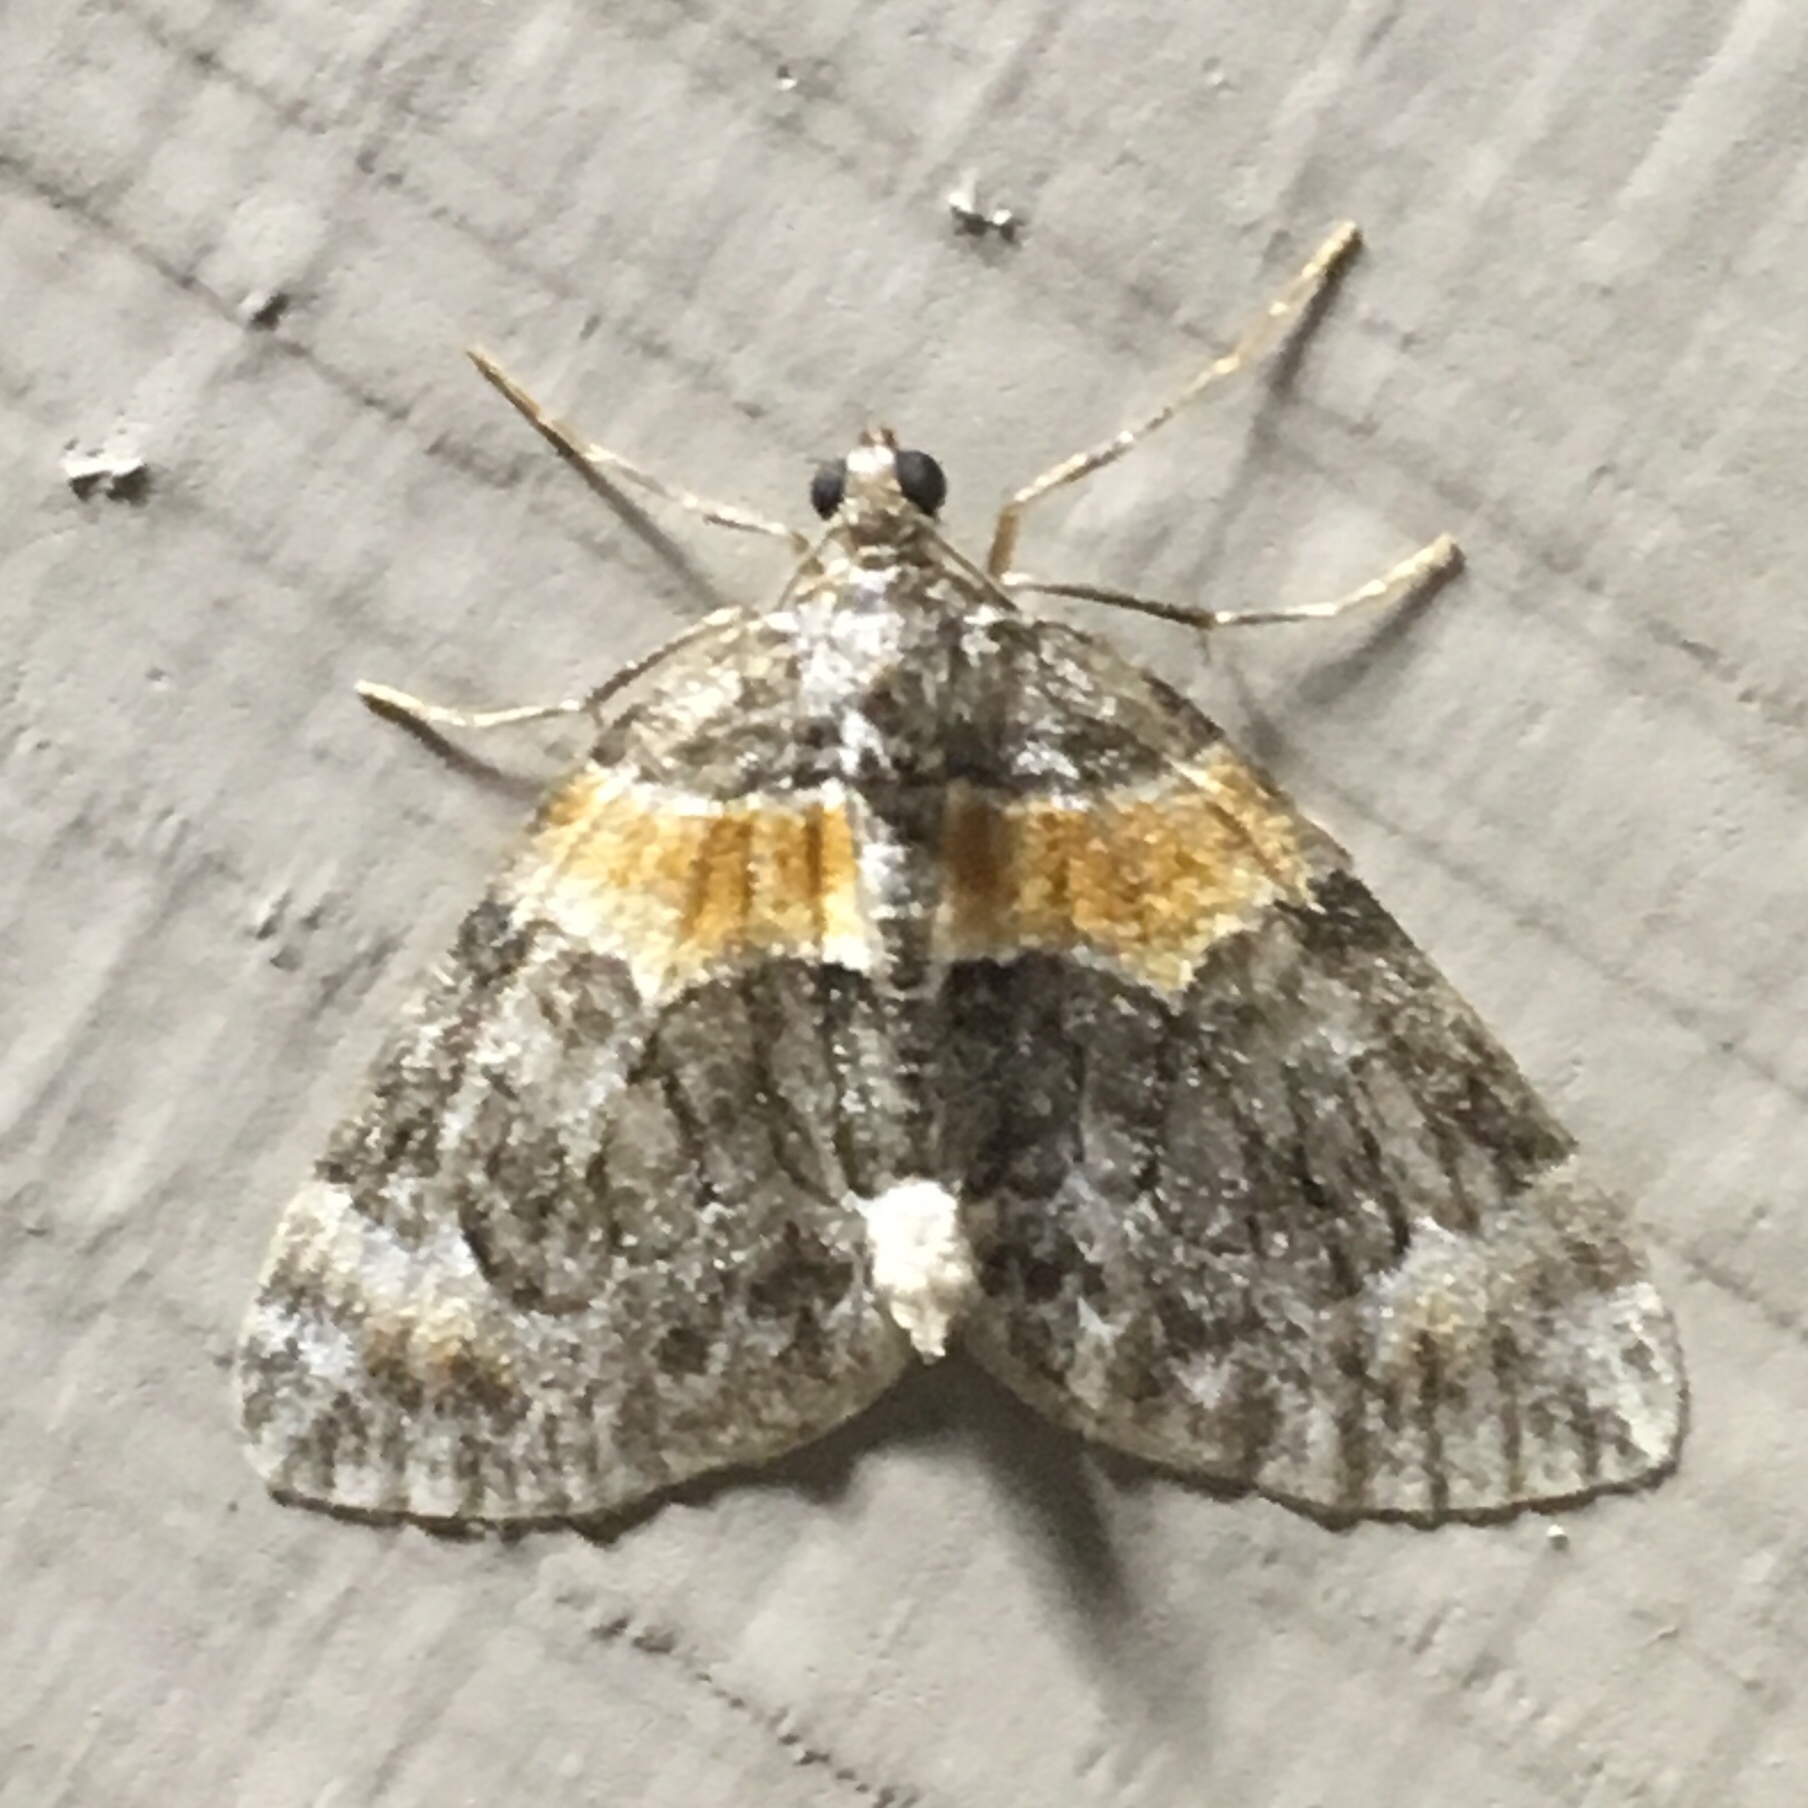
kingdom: Animalia
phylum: Arthropoda
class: Insecta
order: Lepidoptera
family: Geometridae
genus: Dysstroma
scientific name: Dysstroma hersiliata
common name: Orange-barred carpet
